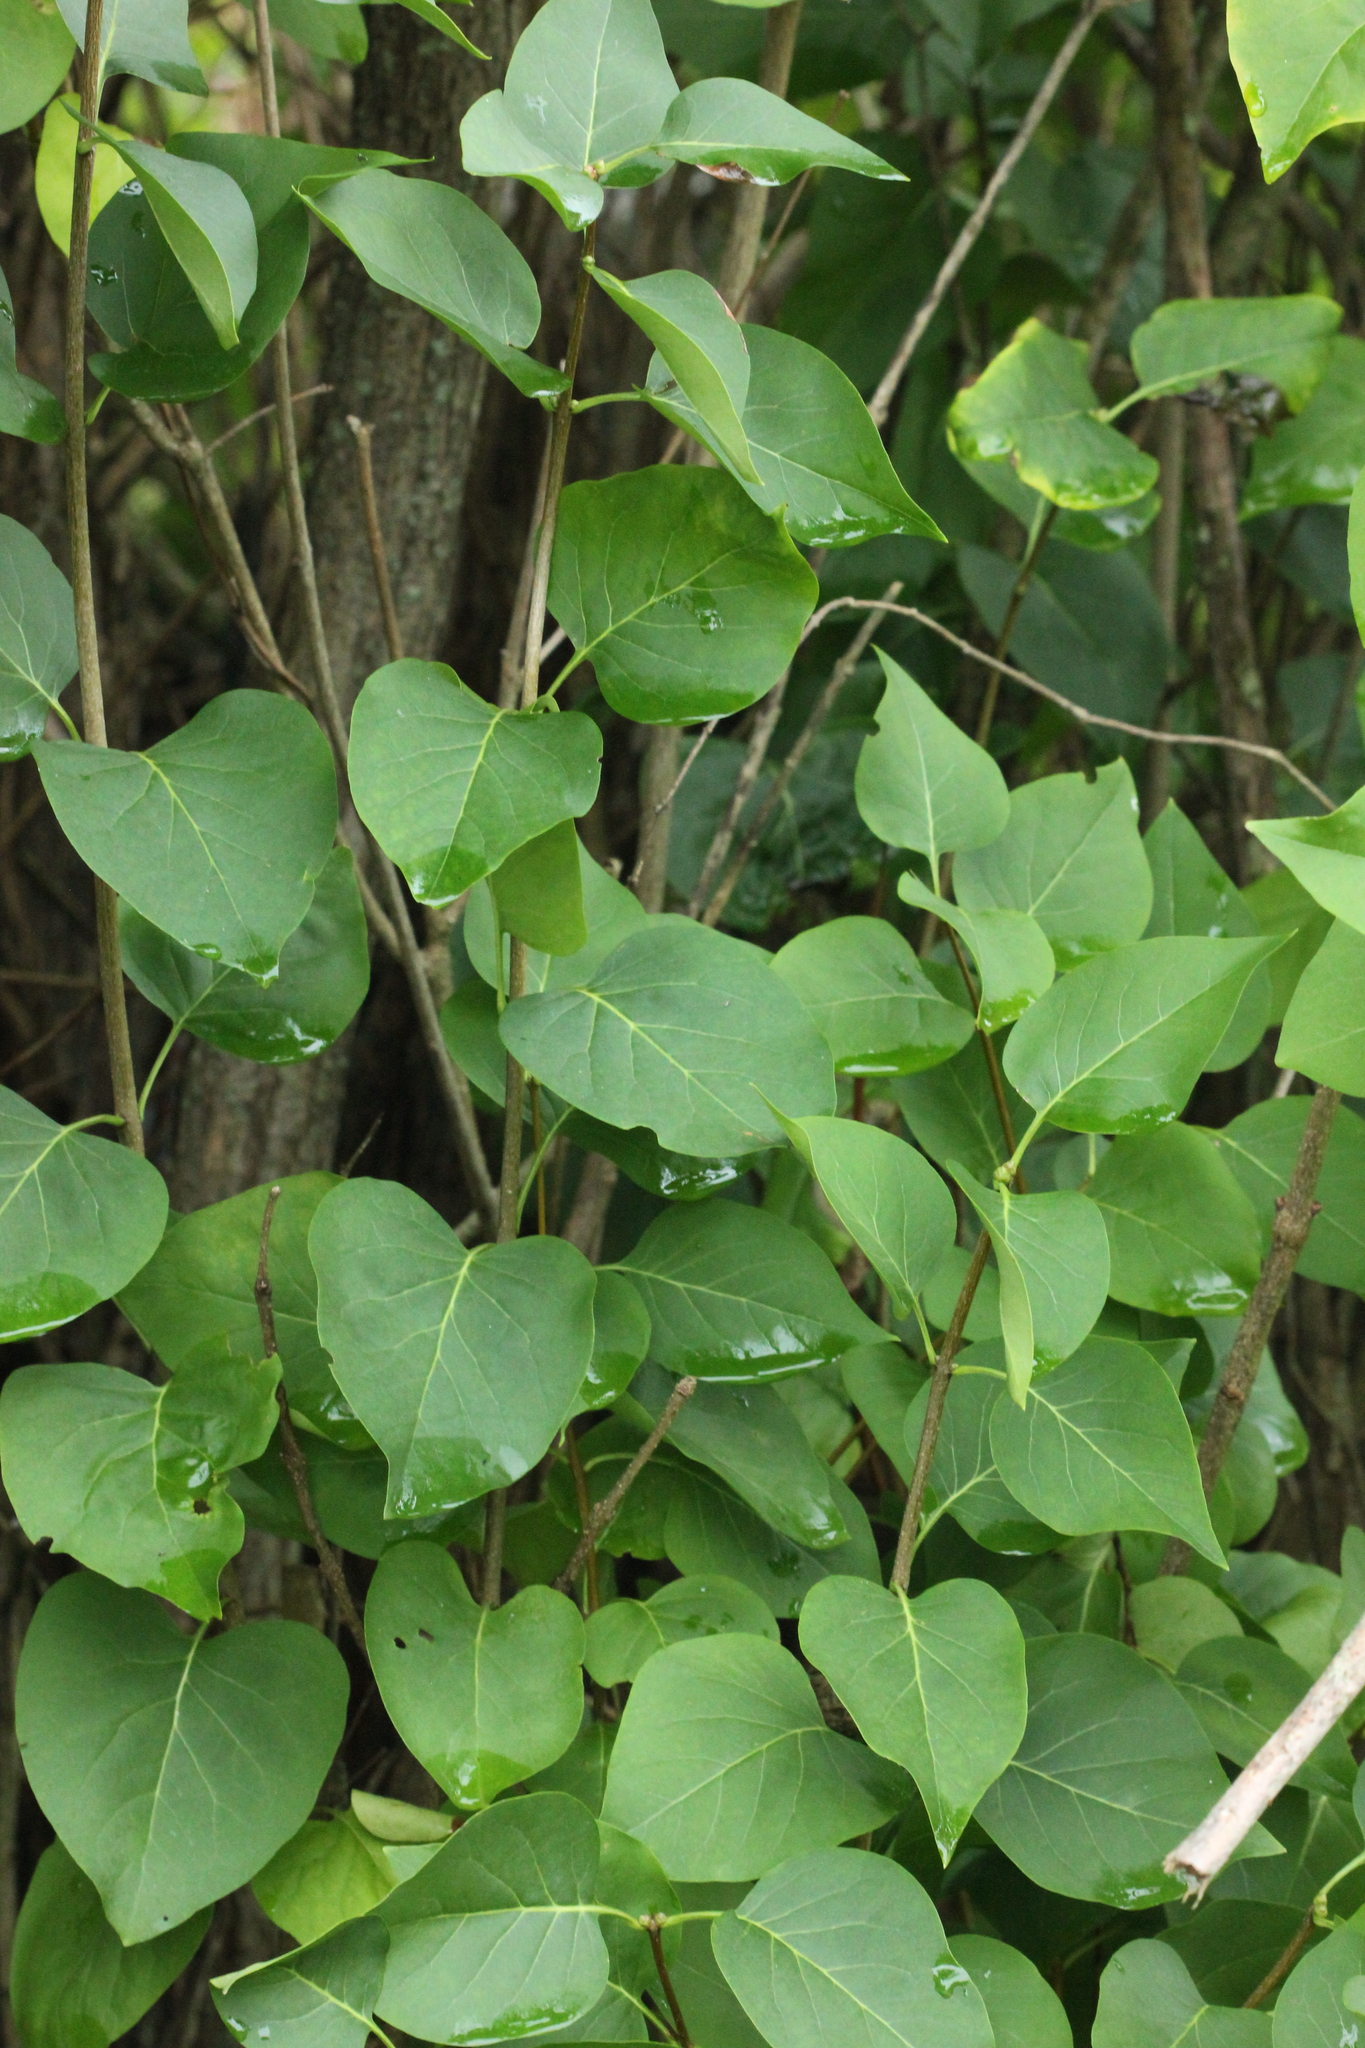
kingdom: Plantae
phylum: Tracheophyta
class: Magnoliopsida
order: Lamiales
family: Oleaceae
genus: Syringa
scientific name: Syringa vulgaris
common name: Common lilac
